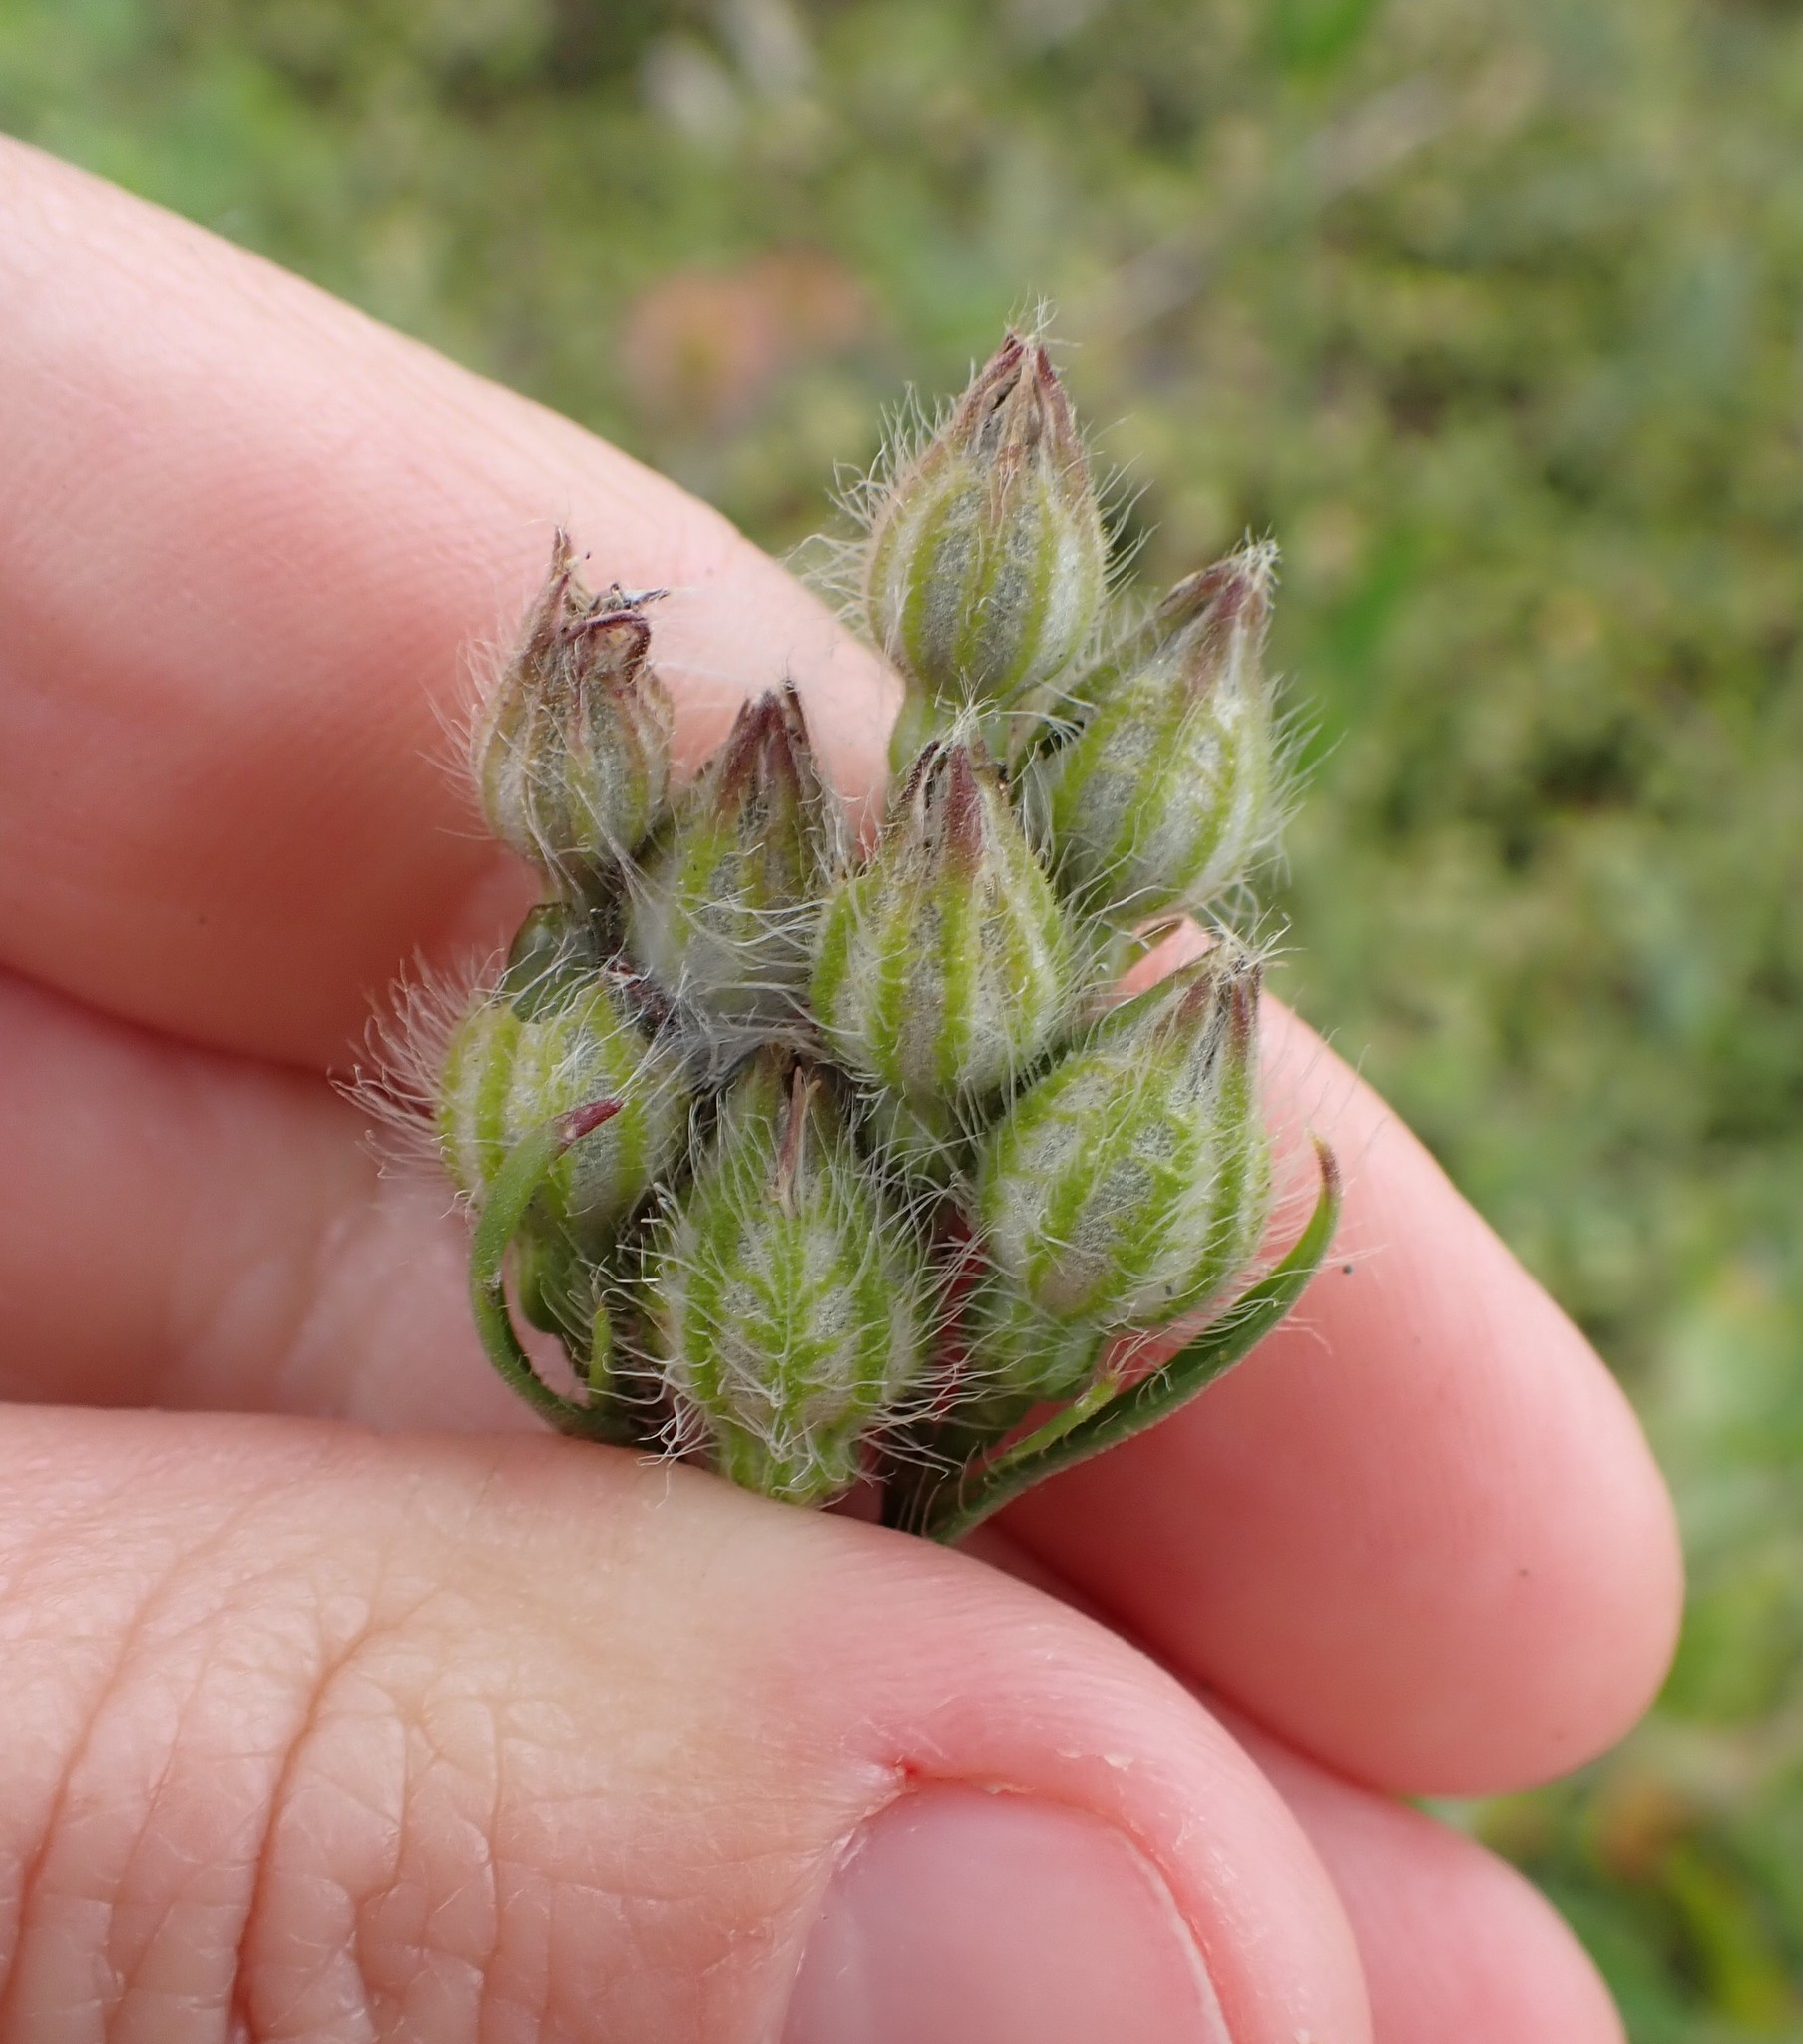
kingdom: Plantae
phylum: Tracheophyta
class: Magnoliopsida
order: Caryophyllales
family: Caryophyllaceae
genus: Silene
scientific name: Silene gallica
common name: Small-flowered catchfly
